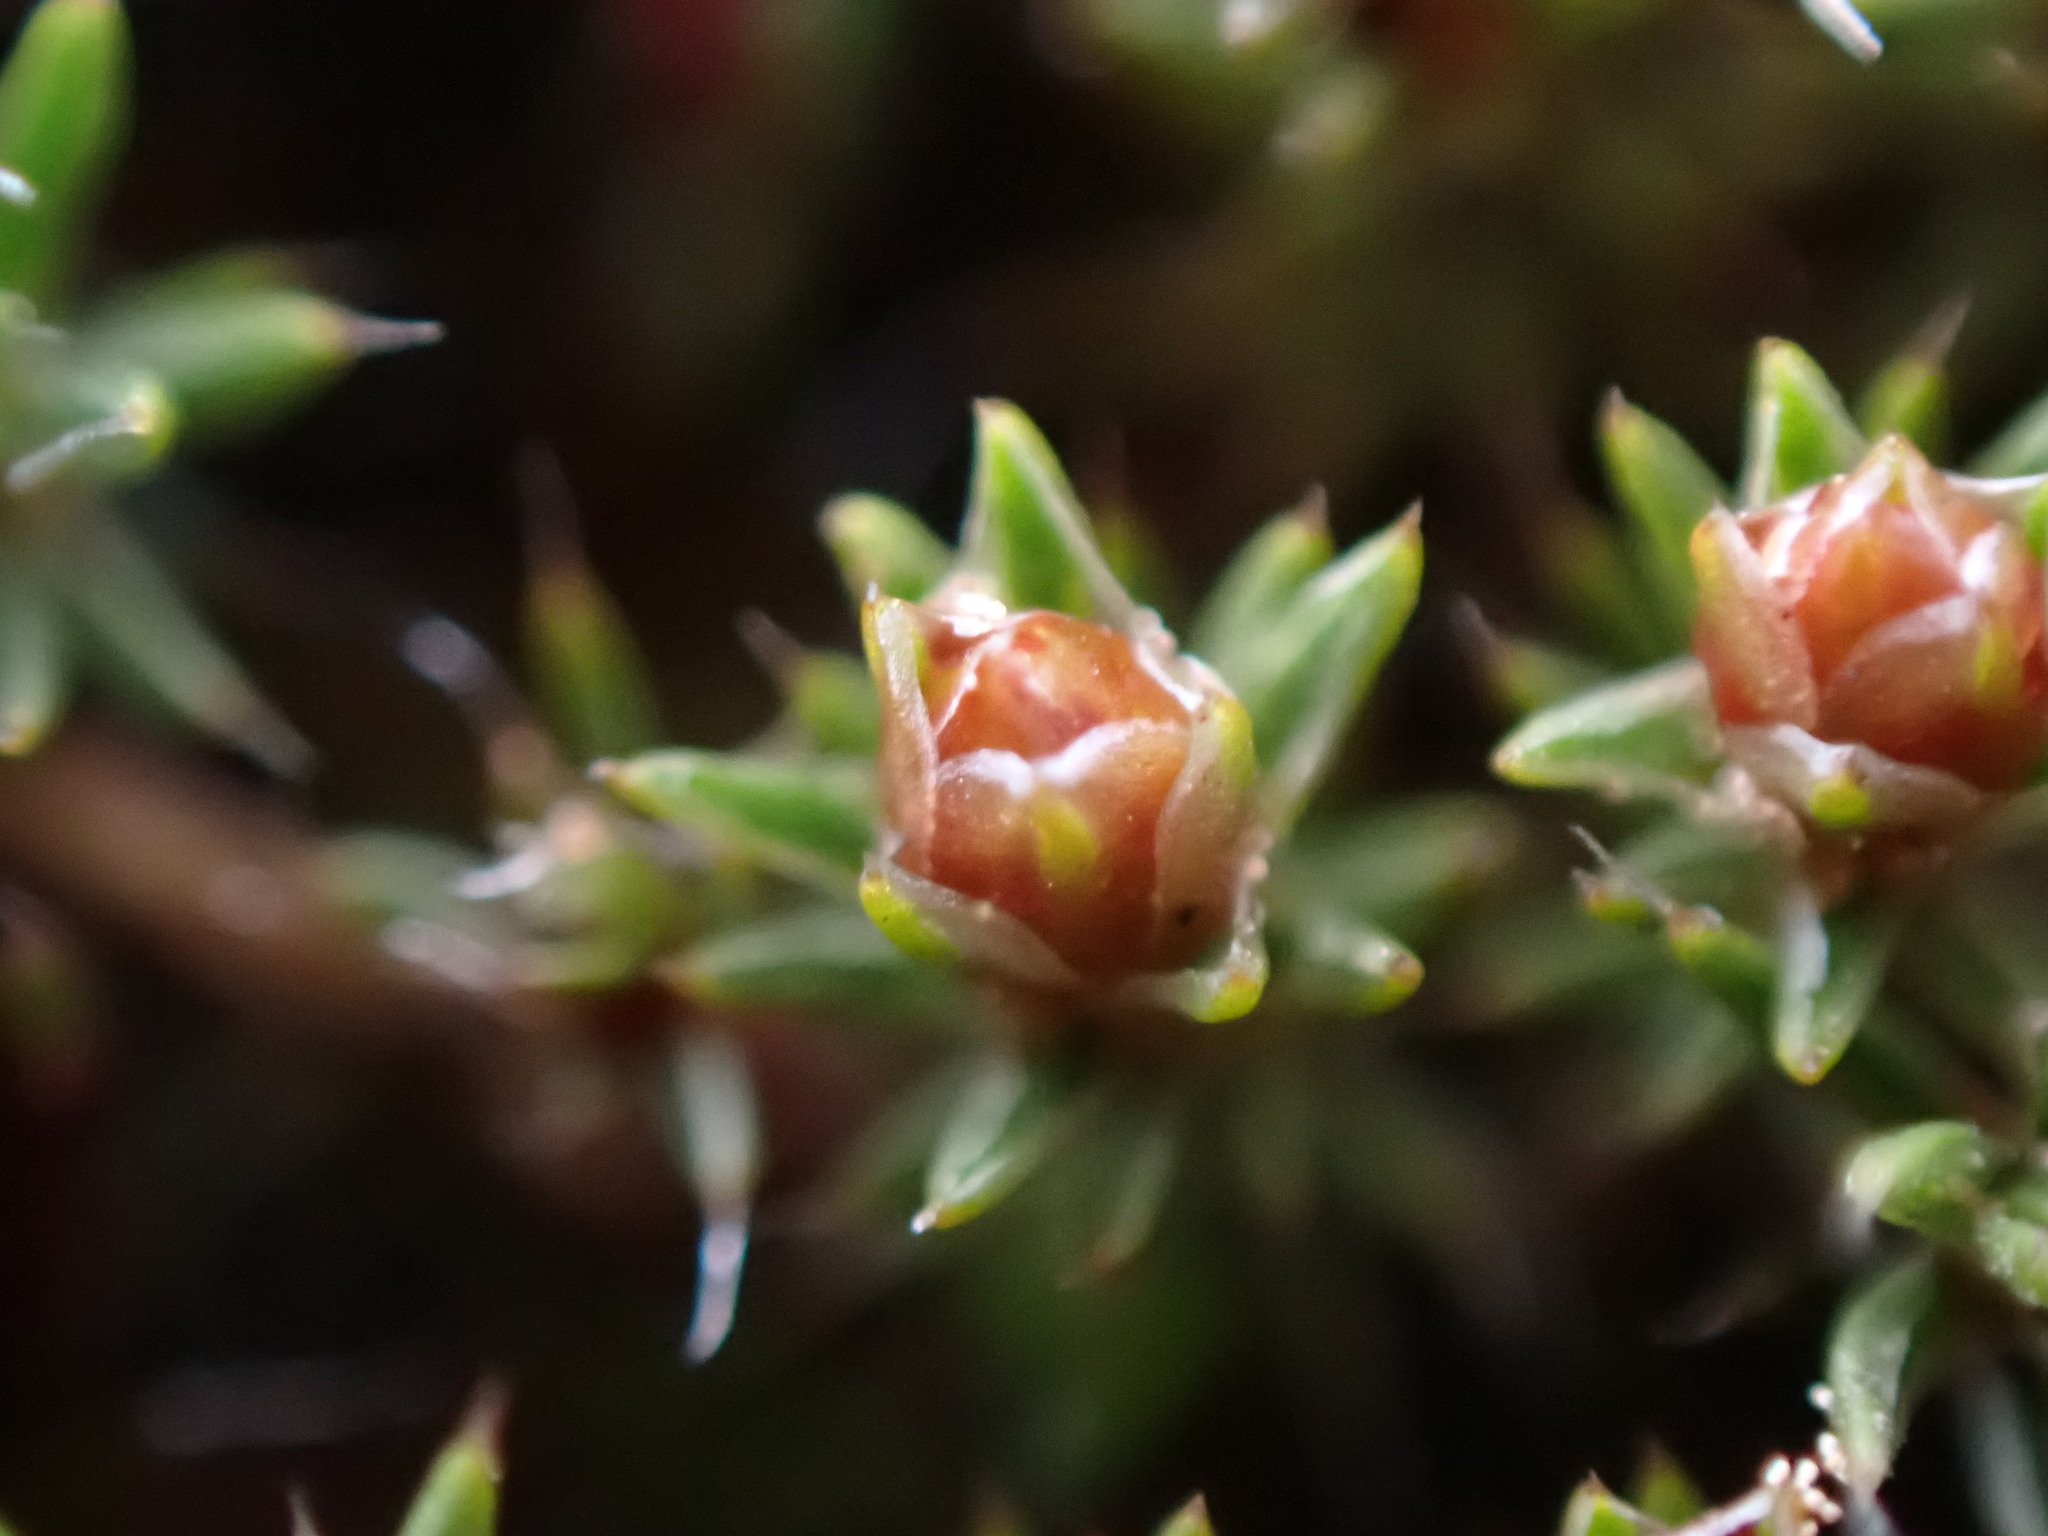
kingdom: Plantae
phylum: Bryophyta
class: Polytrichopsida
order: Polytrichales
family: Polytrichaceae
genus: Polytrichum
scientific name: Polytrichum piliferum
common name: Bristly haircap
